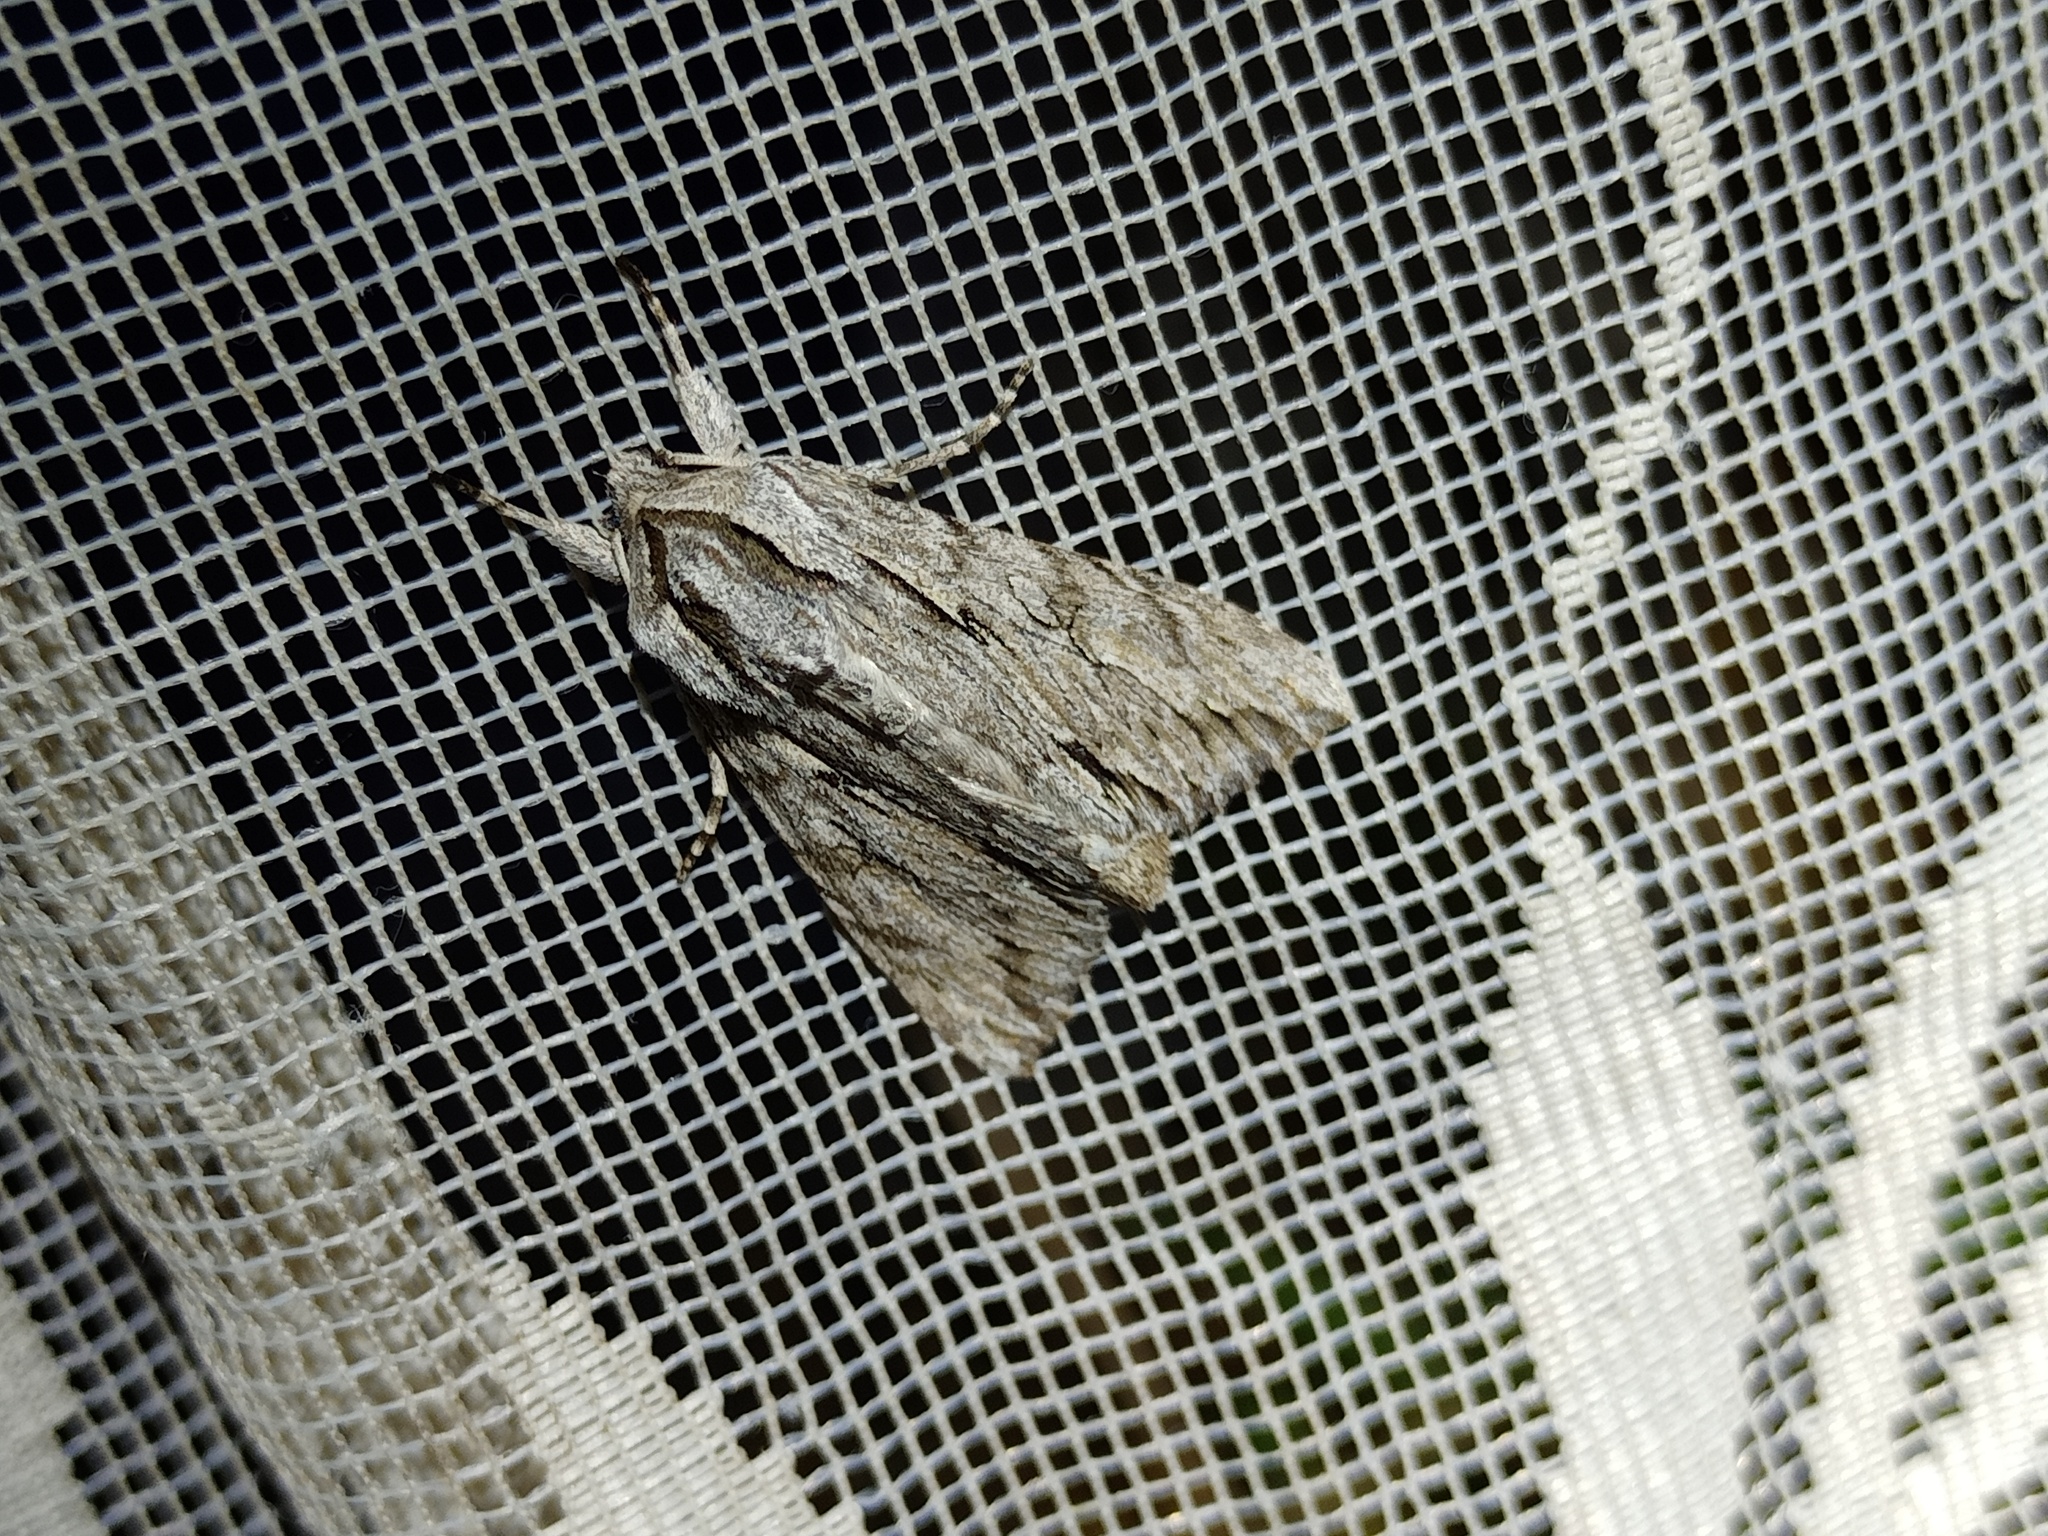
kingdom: Animalia
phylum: Arthropoda
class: Insecta
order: Lepidoptera
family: Noctuidae
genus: Auchmis
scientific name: Auchmis detersa
